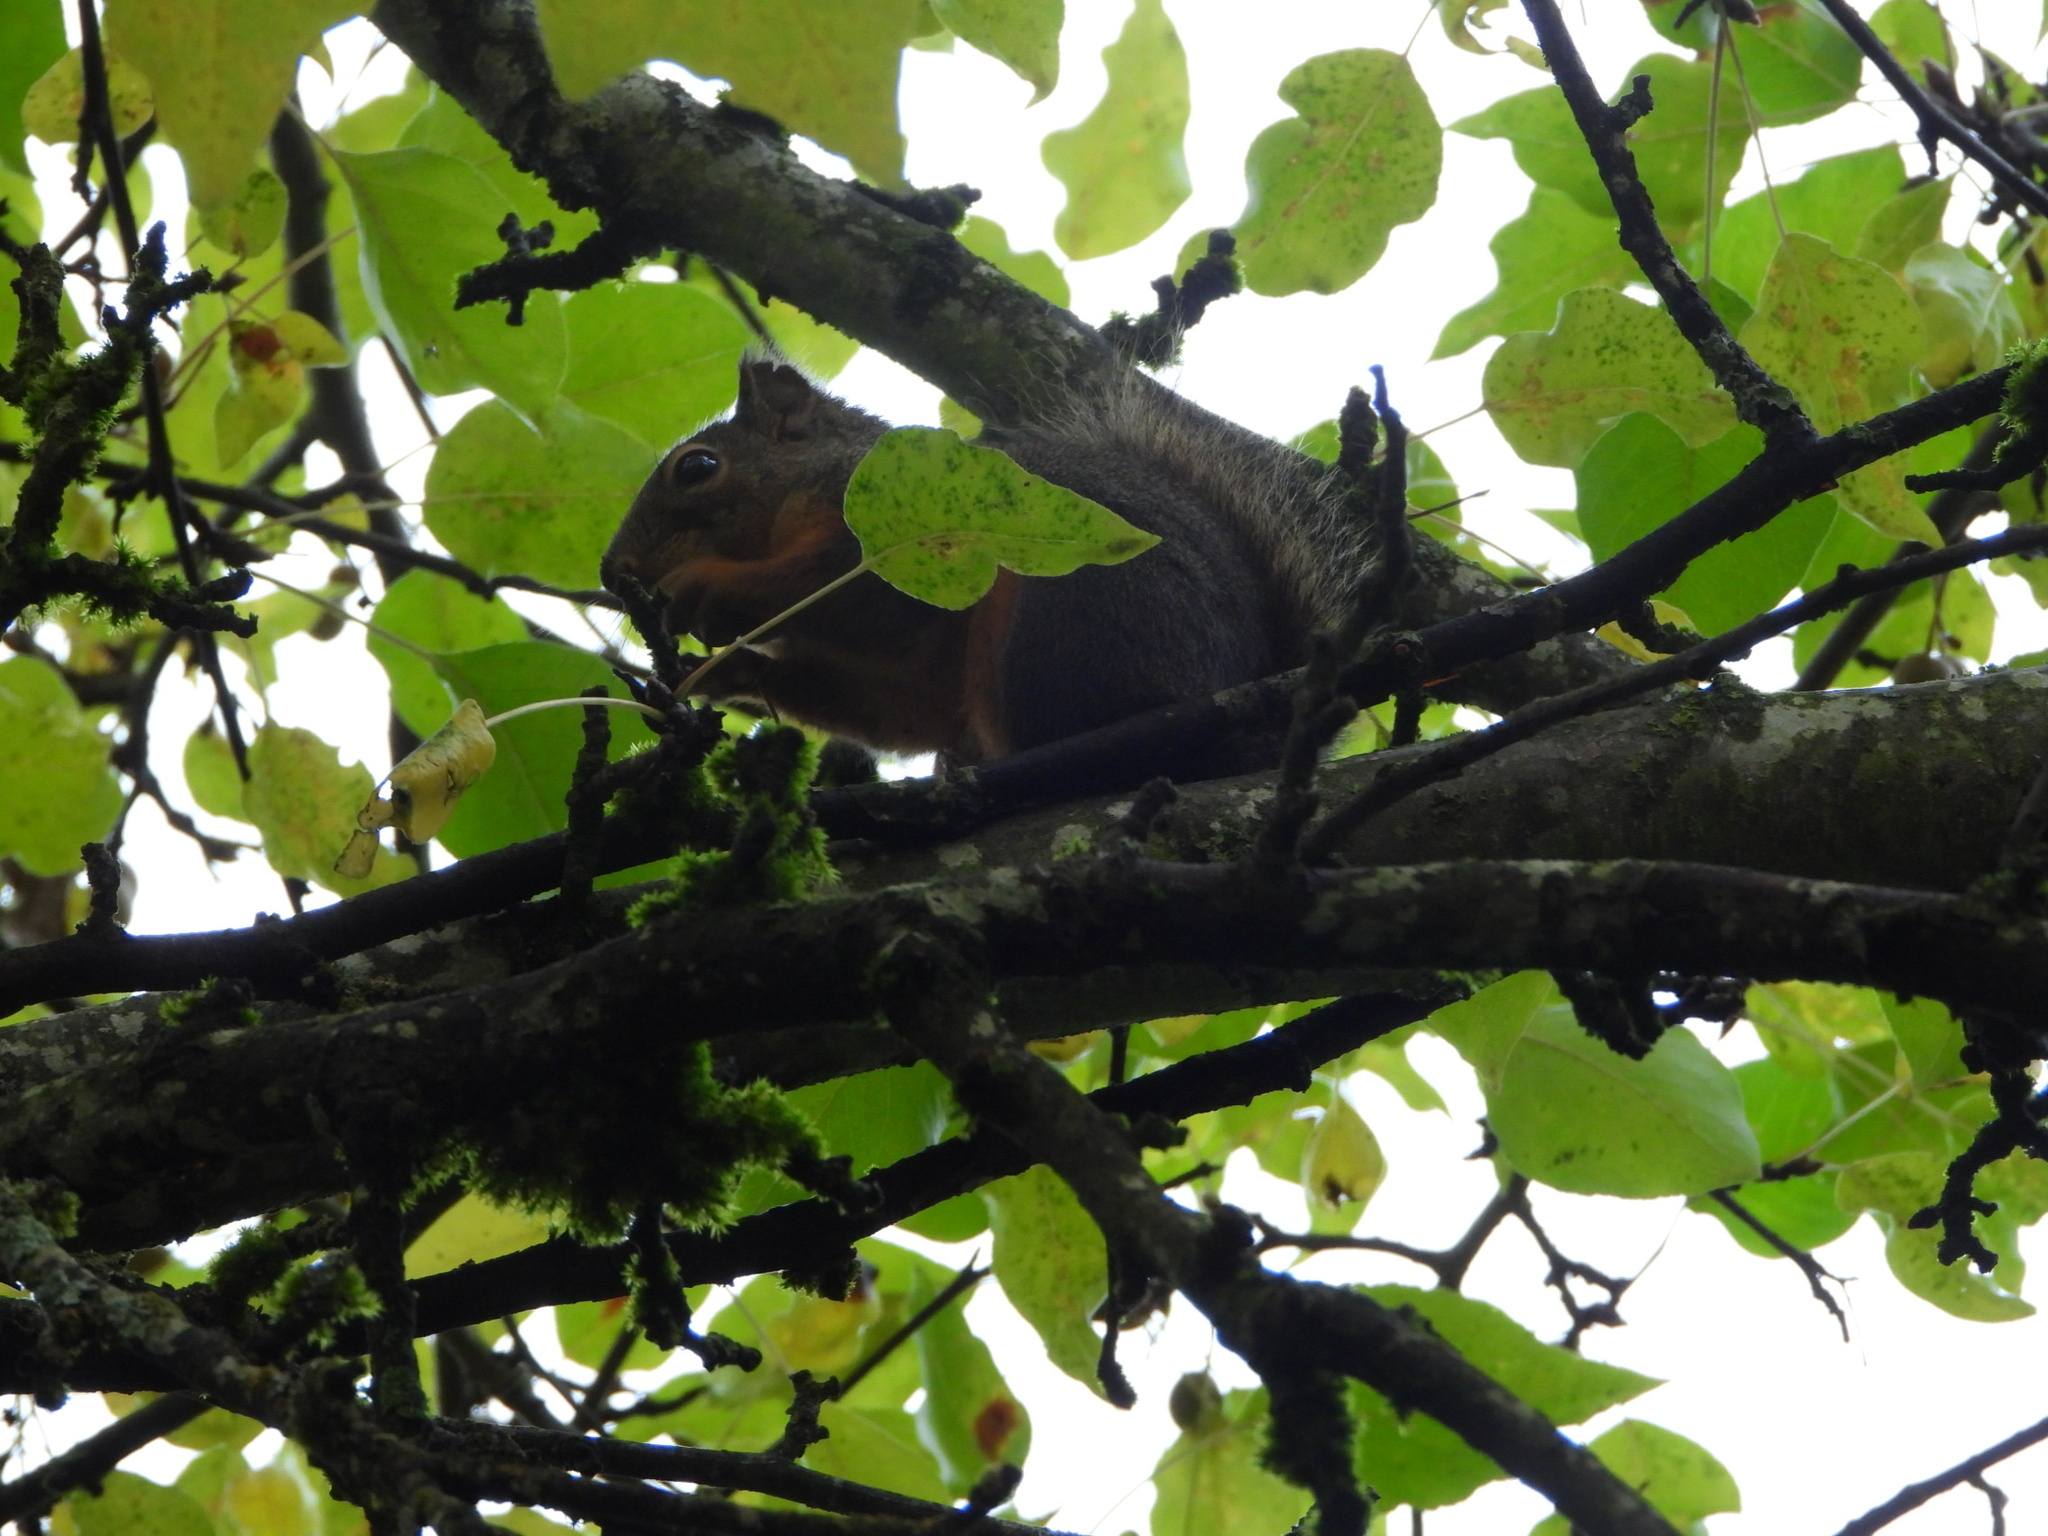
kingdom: Animalia
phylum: Chordata
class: Mammalia
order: Rodentia
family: Sciuridae
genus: Tamiasciurus
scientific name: Tamiasciurus douglasii
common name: Douglas's squirrel
